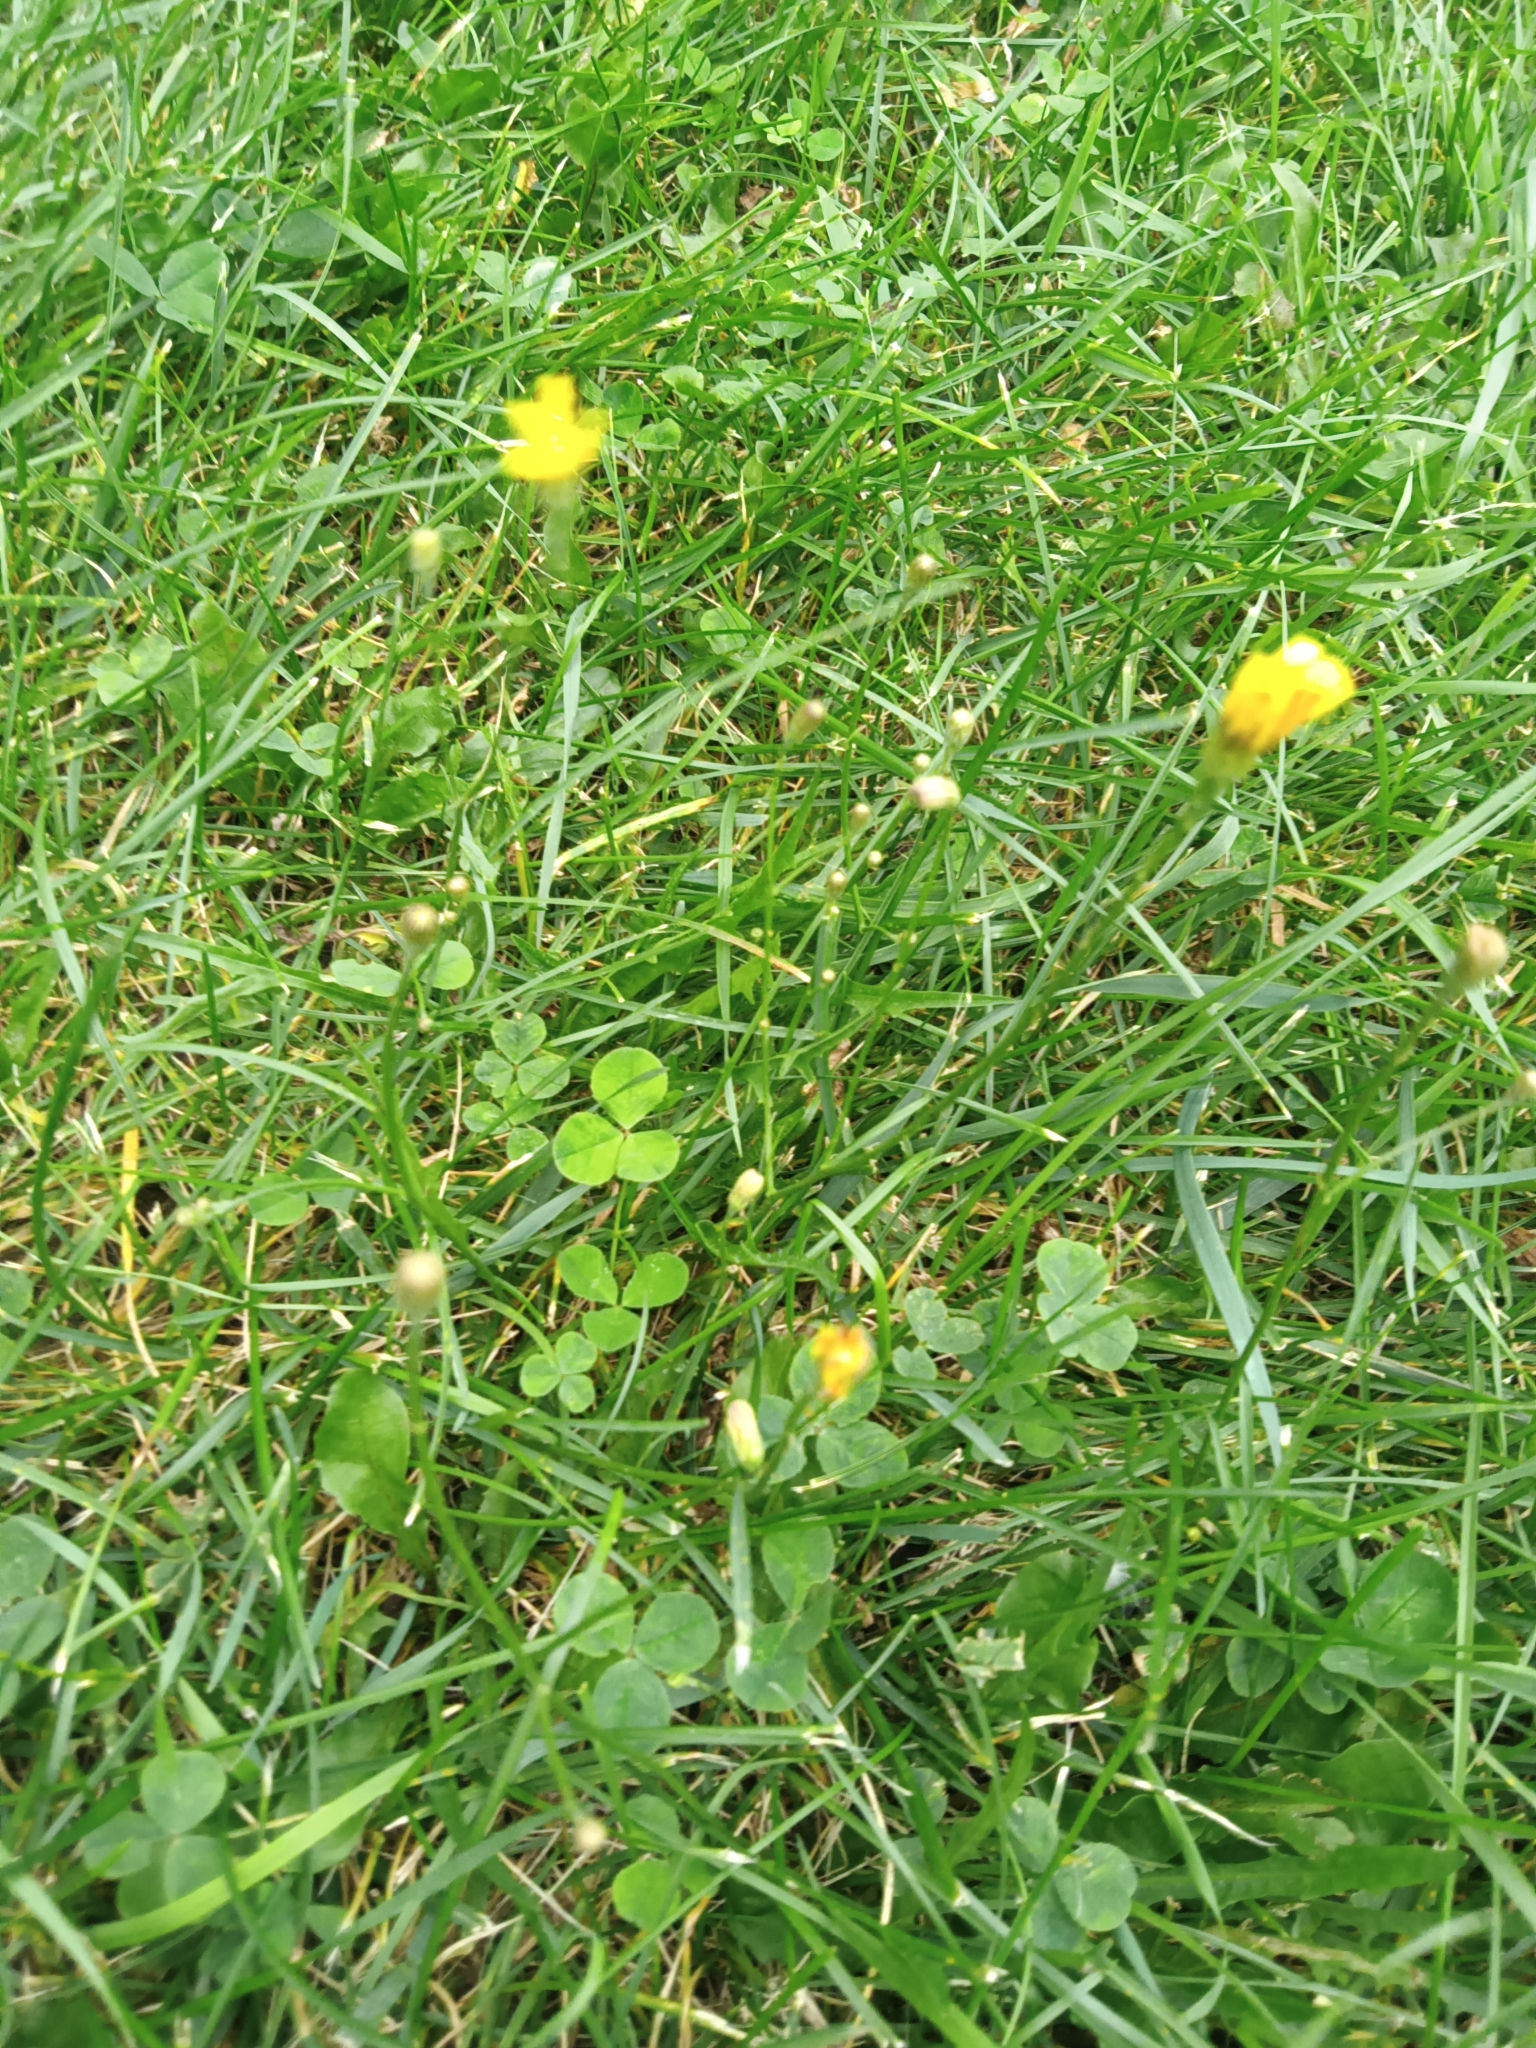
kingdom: Plantae
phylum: Tracheophyta
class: Magnoliopsida
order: Asterales
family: Asteraceae
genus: Scorzoneroides
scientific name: Scorzoneroides autumnalis
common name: Autumn hawkbit
